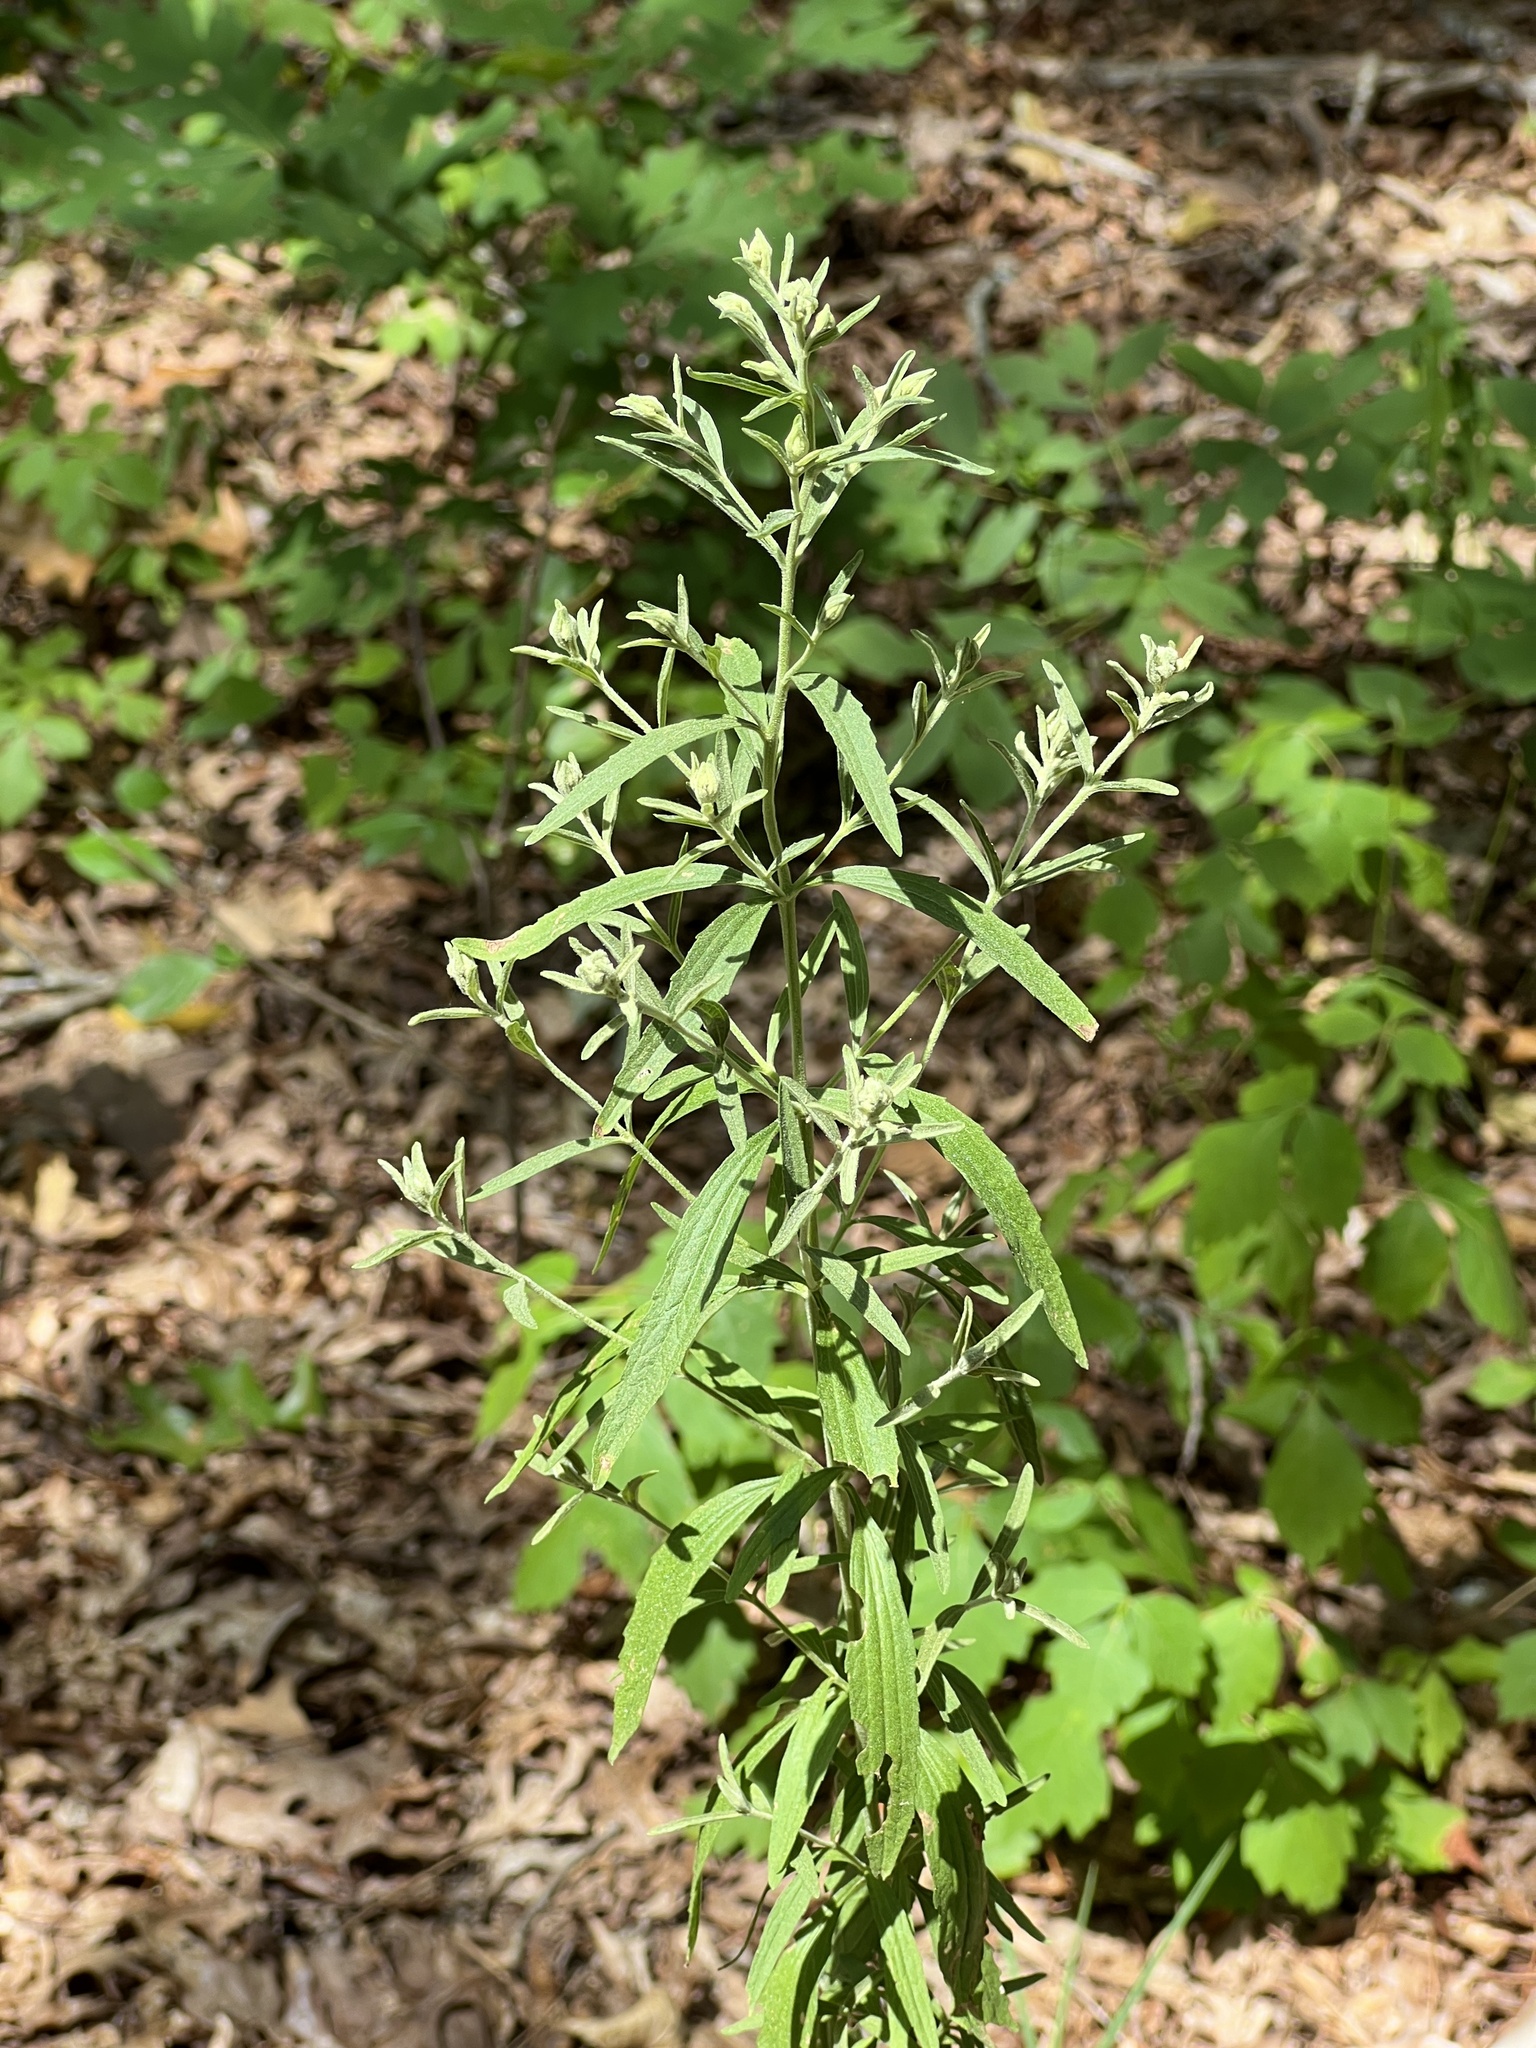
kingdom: Plantae
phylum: Tracheophyta
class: Magnoliopsida
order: Asterales
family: Asteraceae
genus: Eupatorium
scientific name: Eupatorium torreyanum
